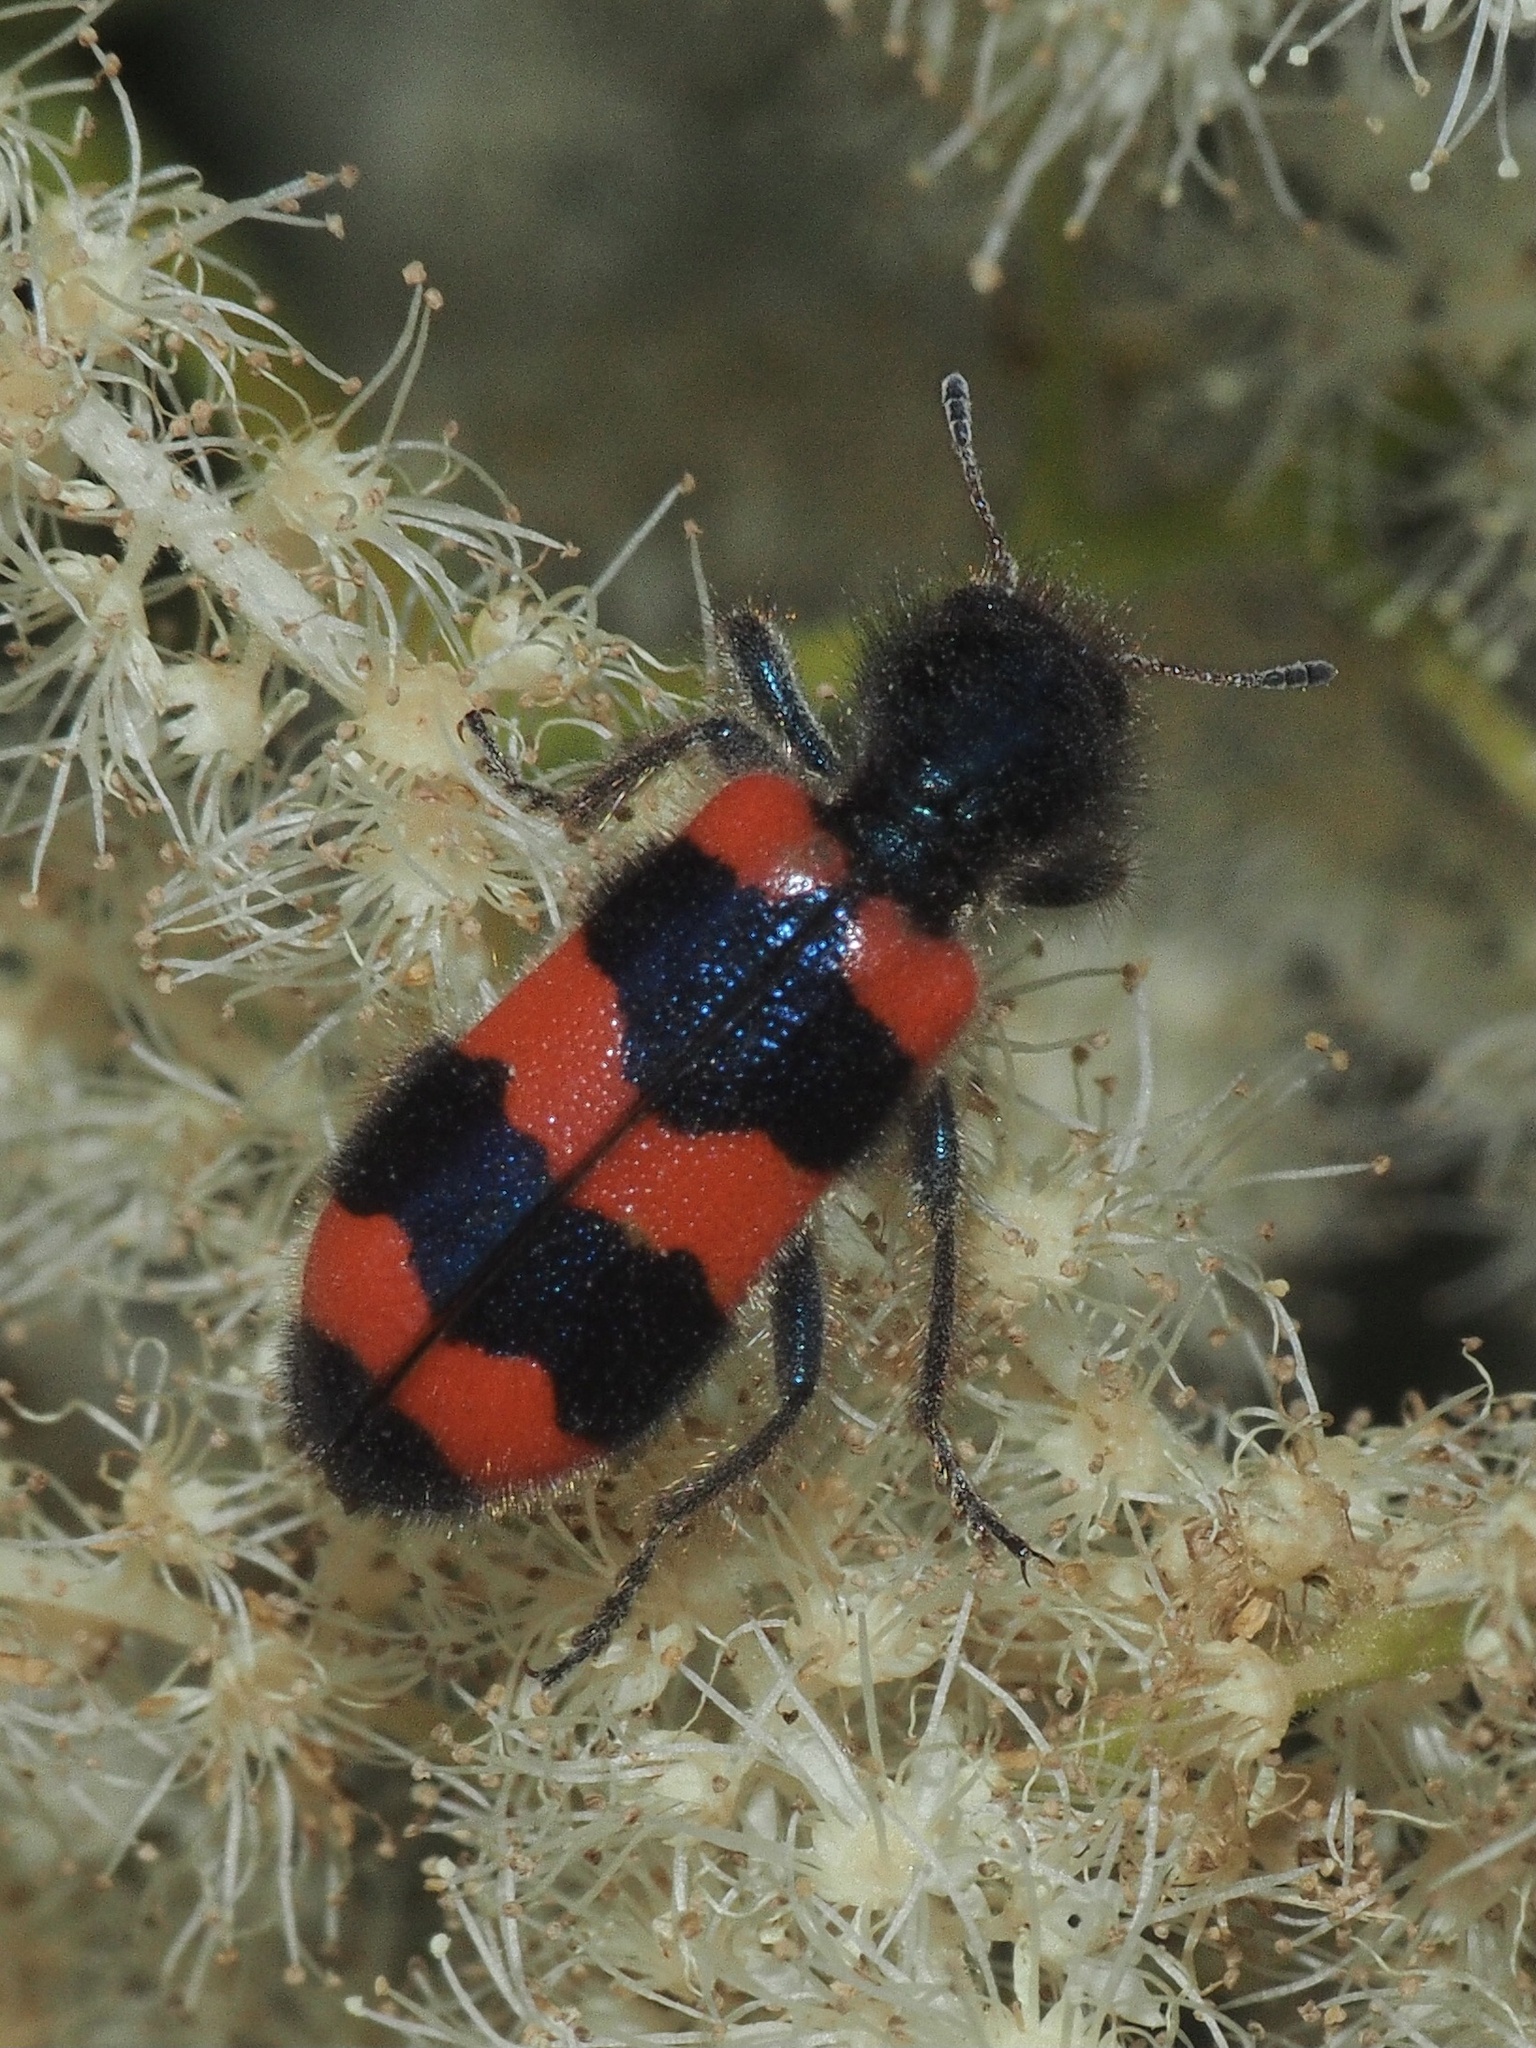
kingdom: Animalia
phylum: Arthropoda
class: Insecta
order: Coleoptera
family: Cleridae
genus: Trichodes
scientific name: Trichodes apiarius
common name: Bee-eating beetle
